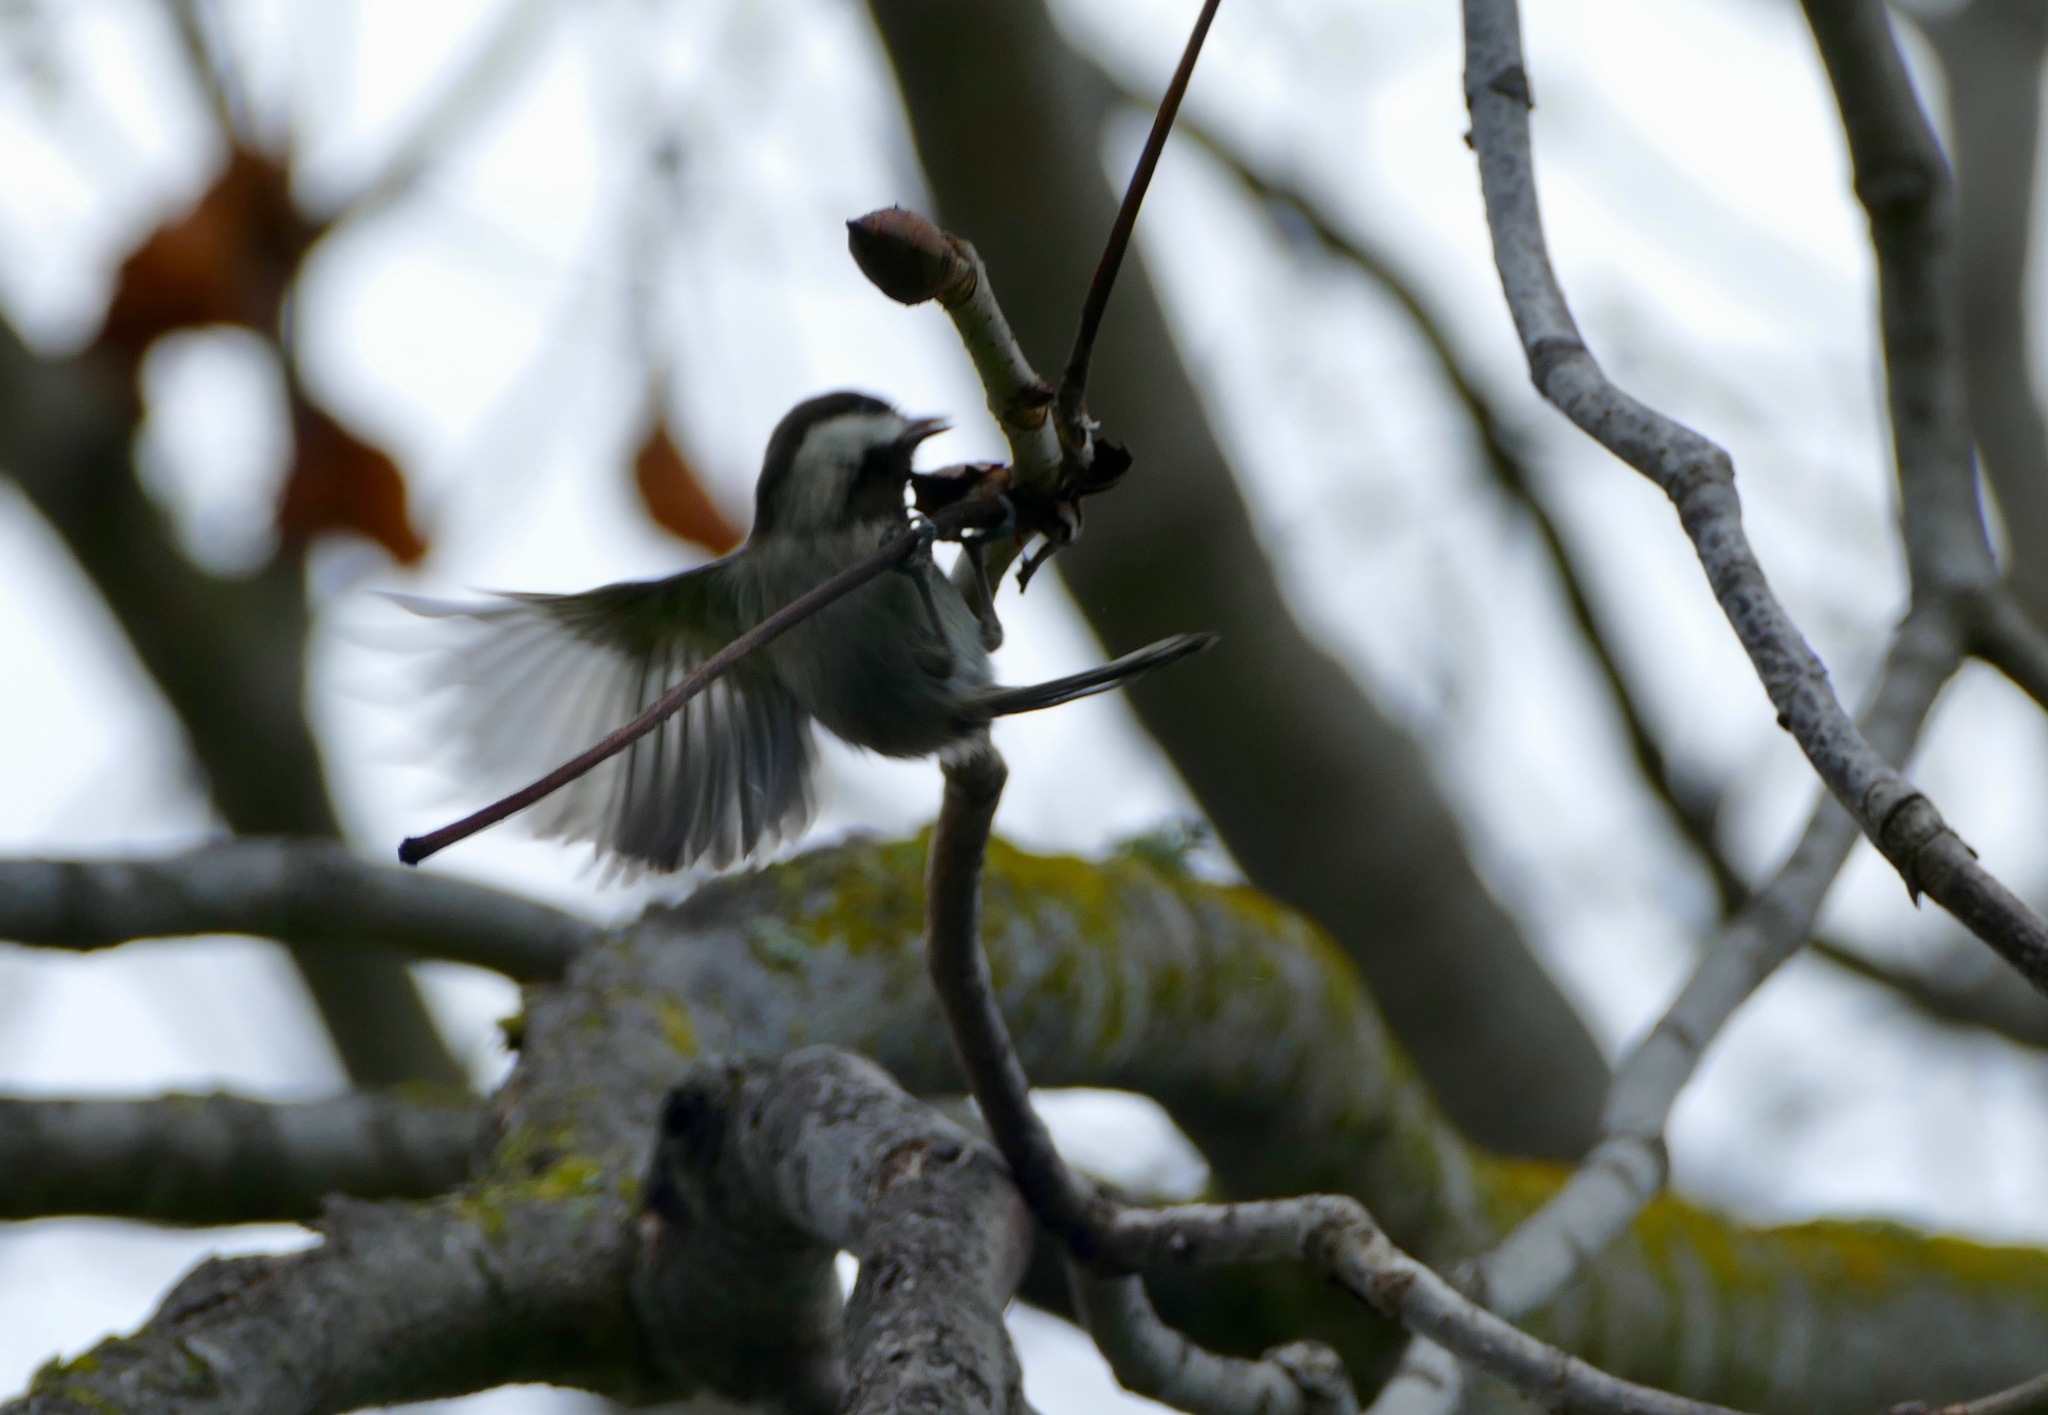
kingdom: Animalia
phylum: Chordata
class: Aves
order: Passeriformes
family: Paridae
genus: Poecile
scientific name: Poecile rufescens
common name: Chestnut-backed chickadee
